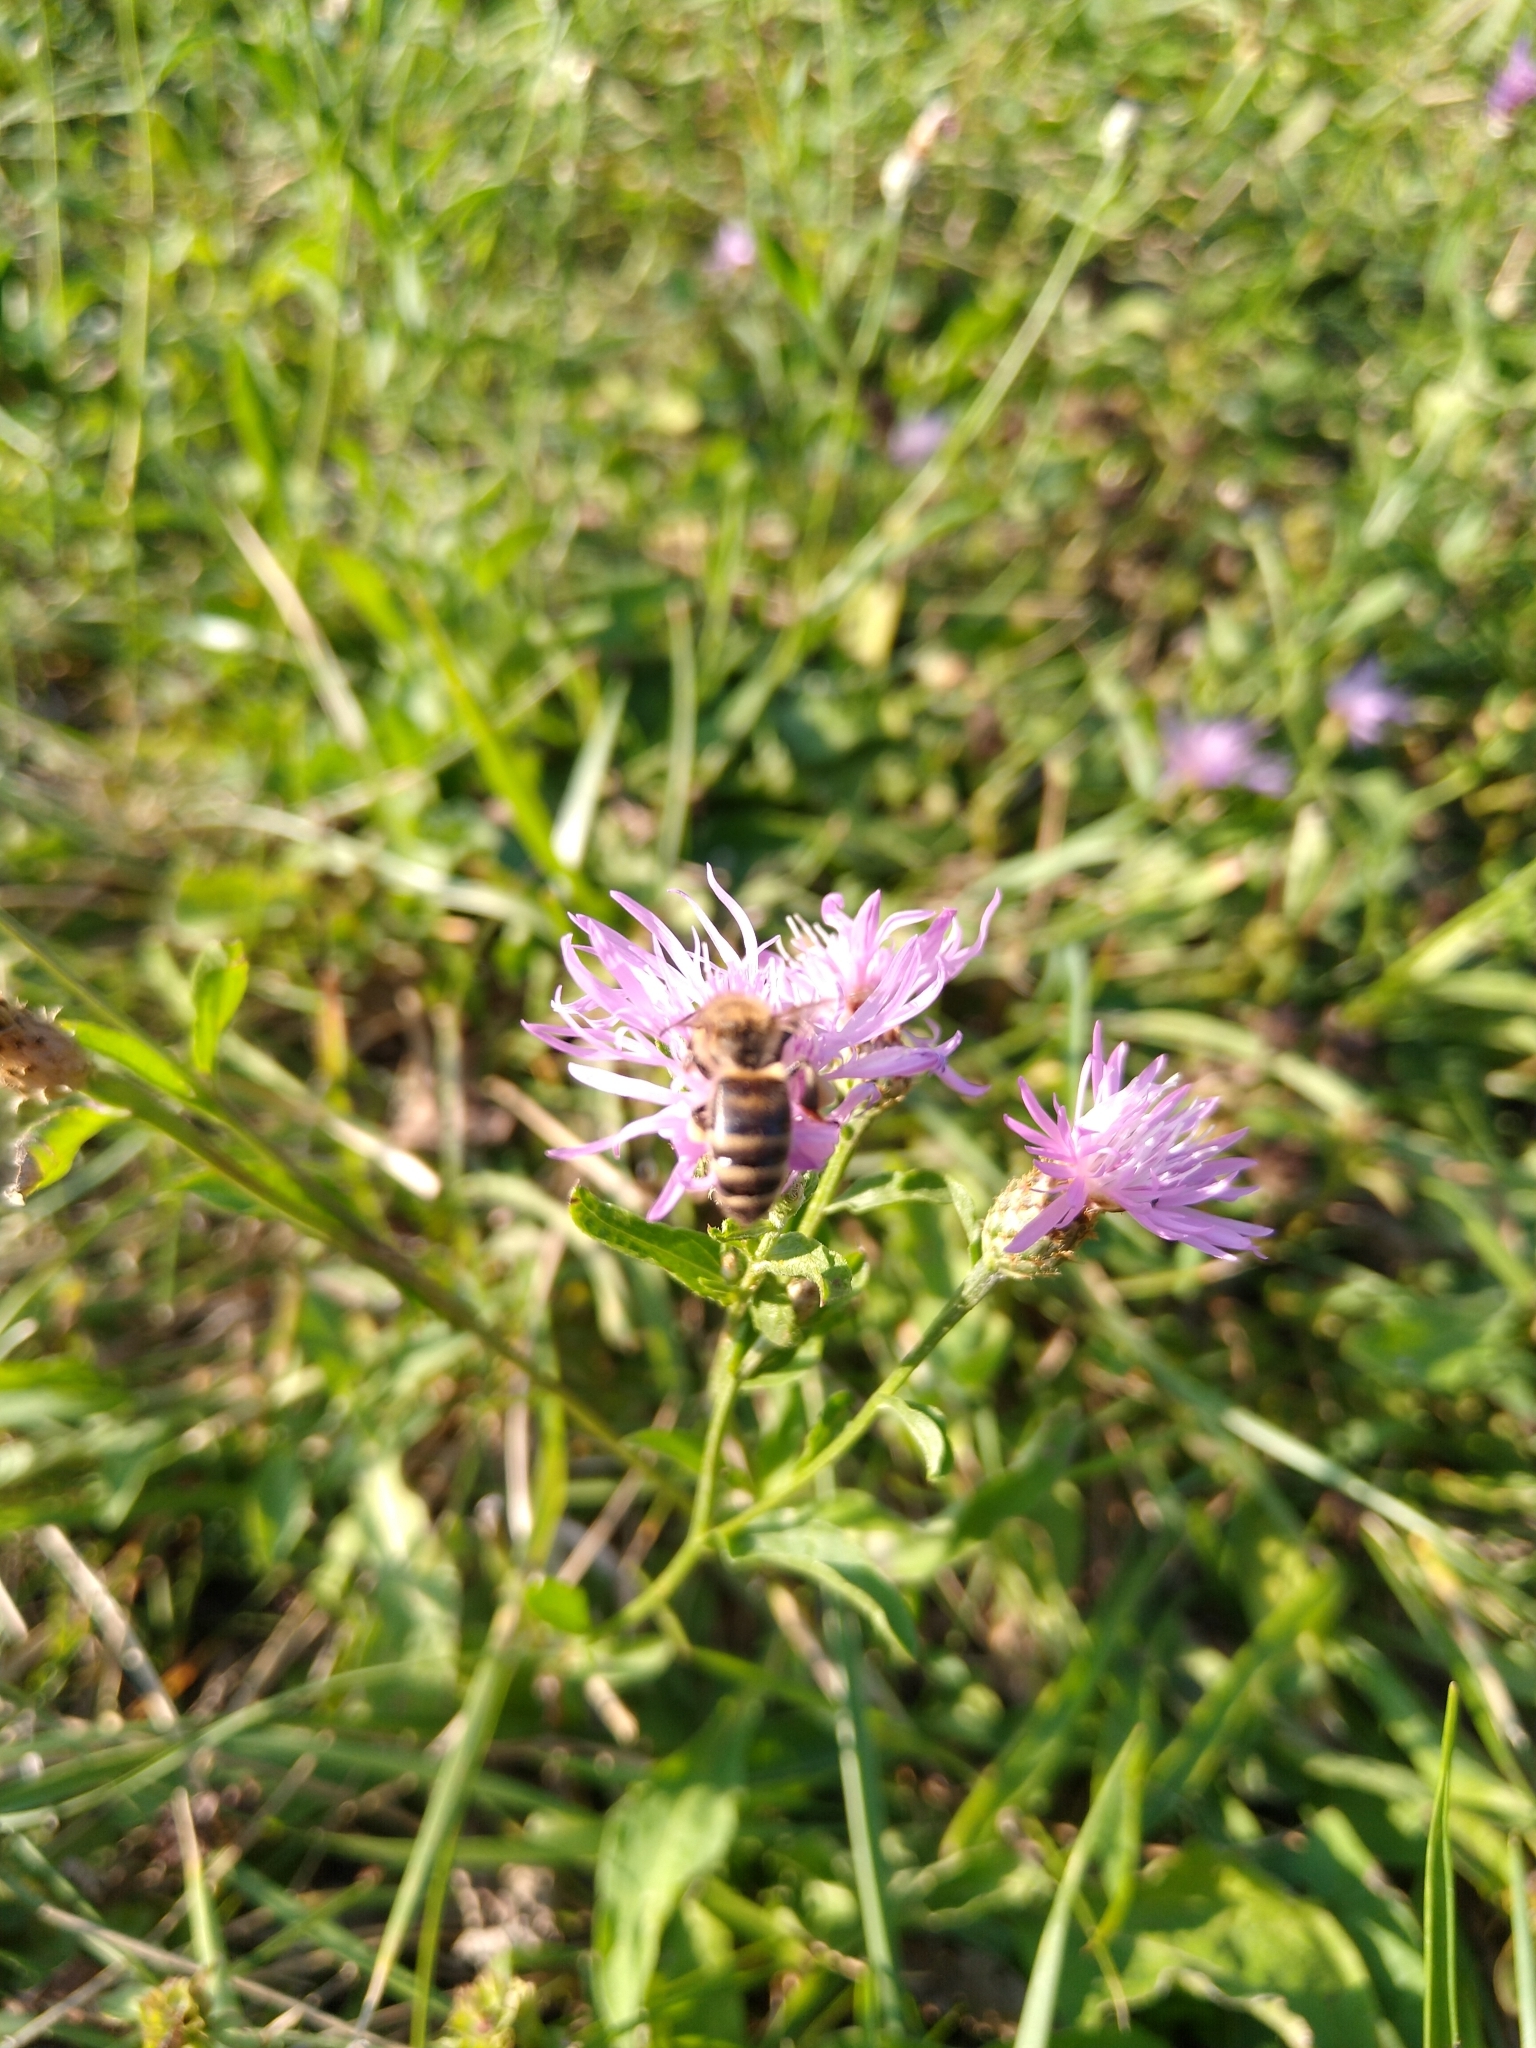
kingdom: Animalia
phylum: Arthropoda
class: Insecta
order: Hymenoptera
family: Apidae
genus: Apis
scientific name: Apis mellifera
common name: Honey bee
